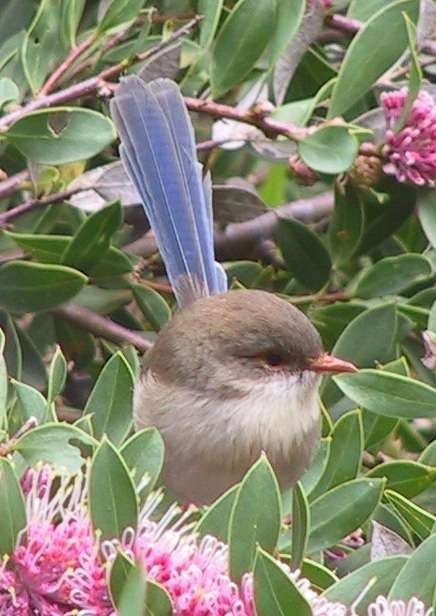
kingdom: Animalia
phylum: Chordata
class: Aves
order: Passeriformes
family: Maluridae
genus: Malurus
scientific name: Malurus cyaneus
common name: Superb fairywren
